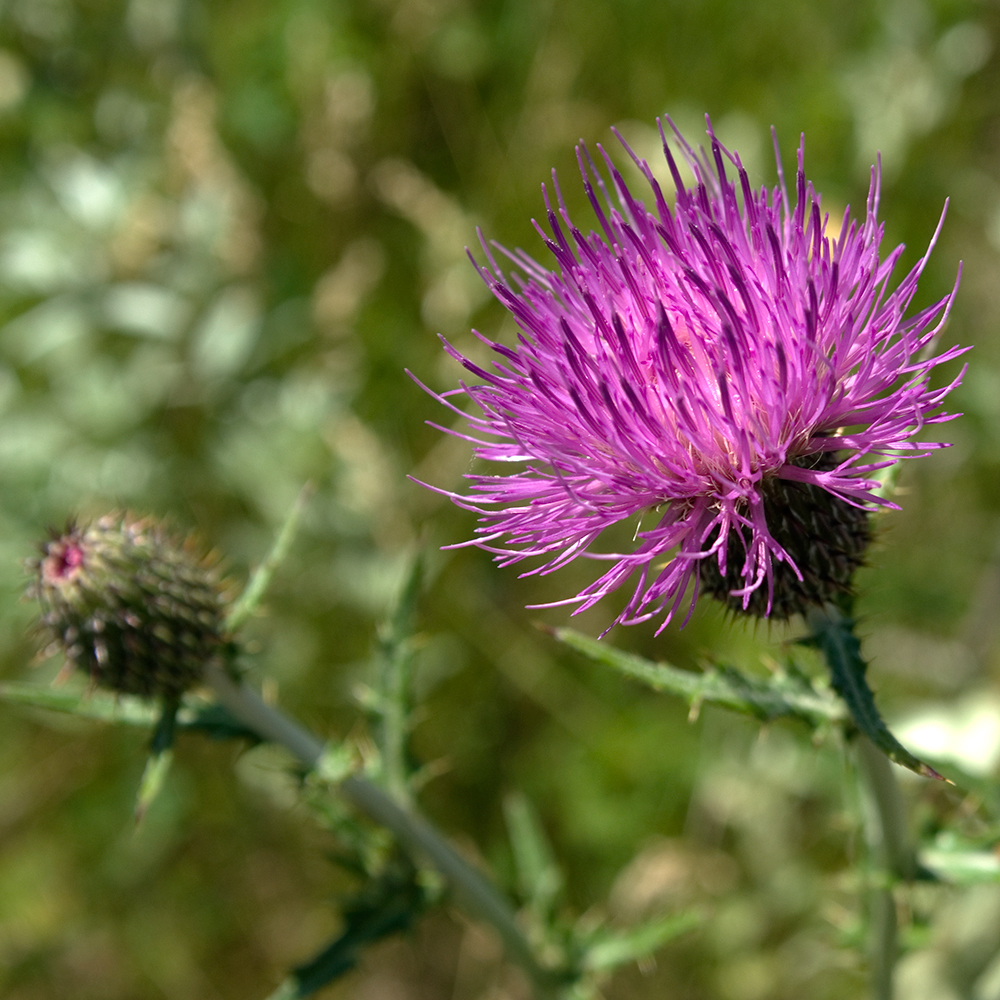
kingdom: Plantae
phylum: Tracheophyta
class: Magnoliopsida
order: Asterales
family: Asteraceae
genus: Cirsium
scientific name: Cirsium flodmanii
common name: Flodman's thistle
